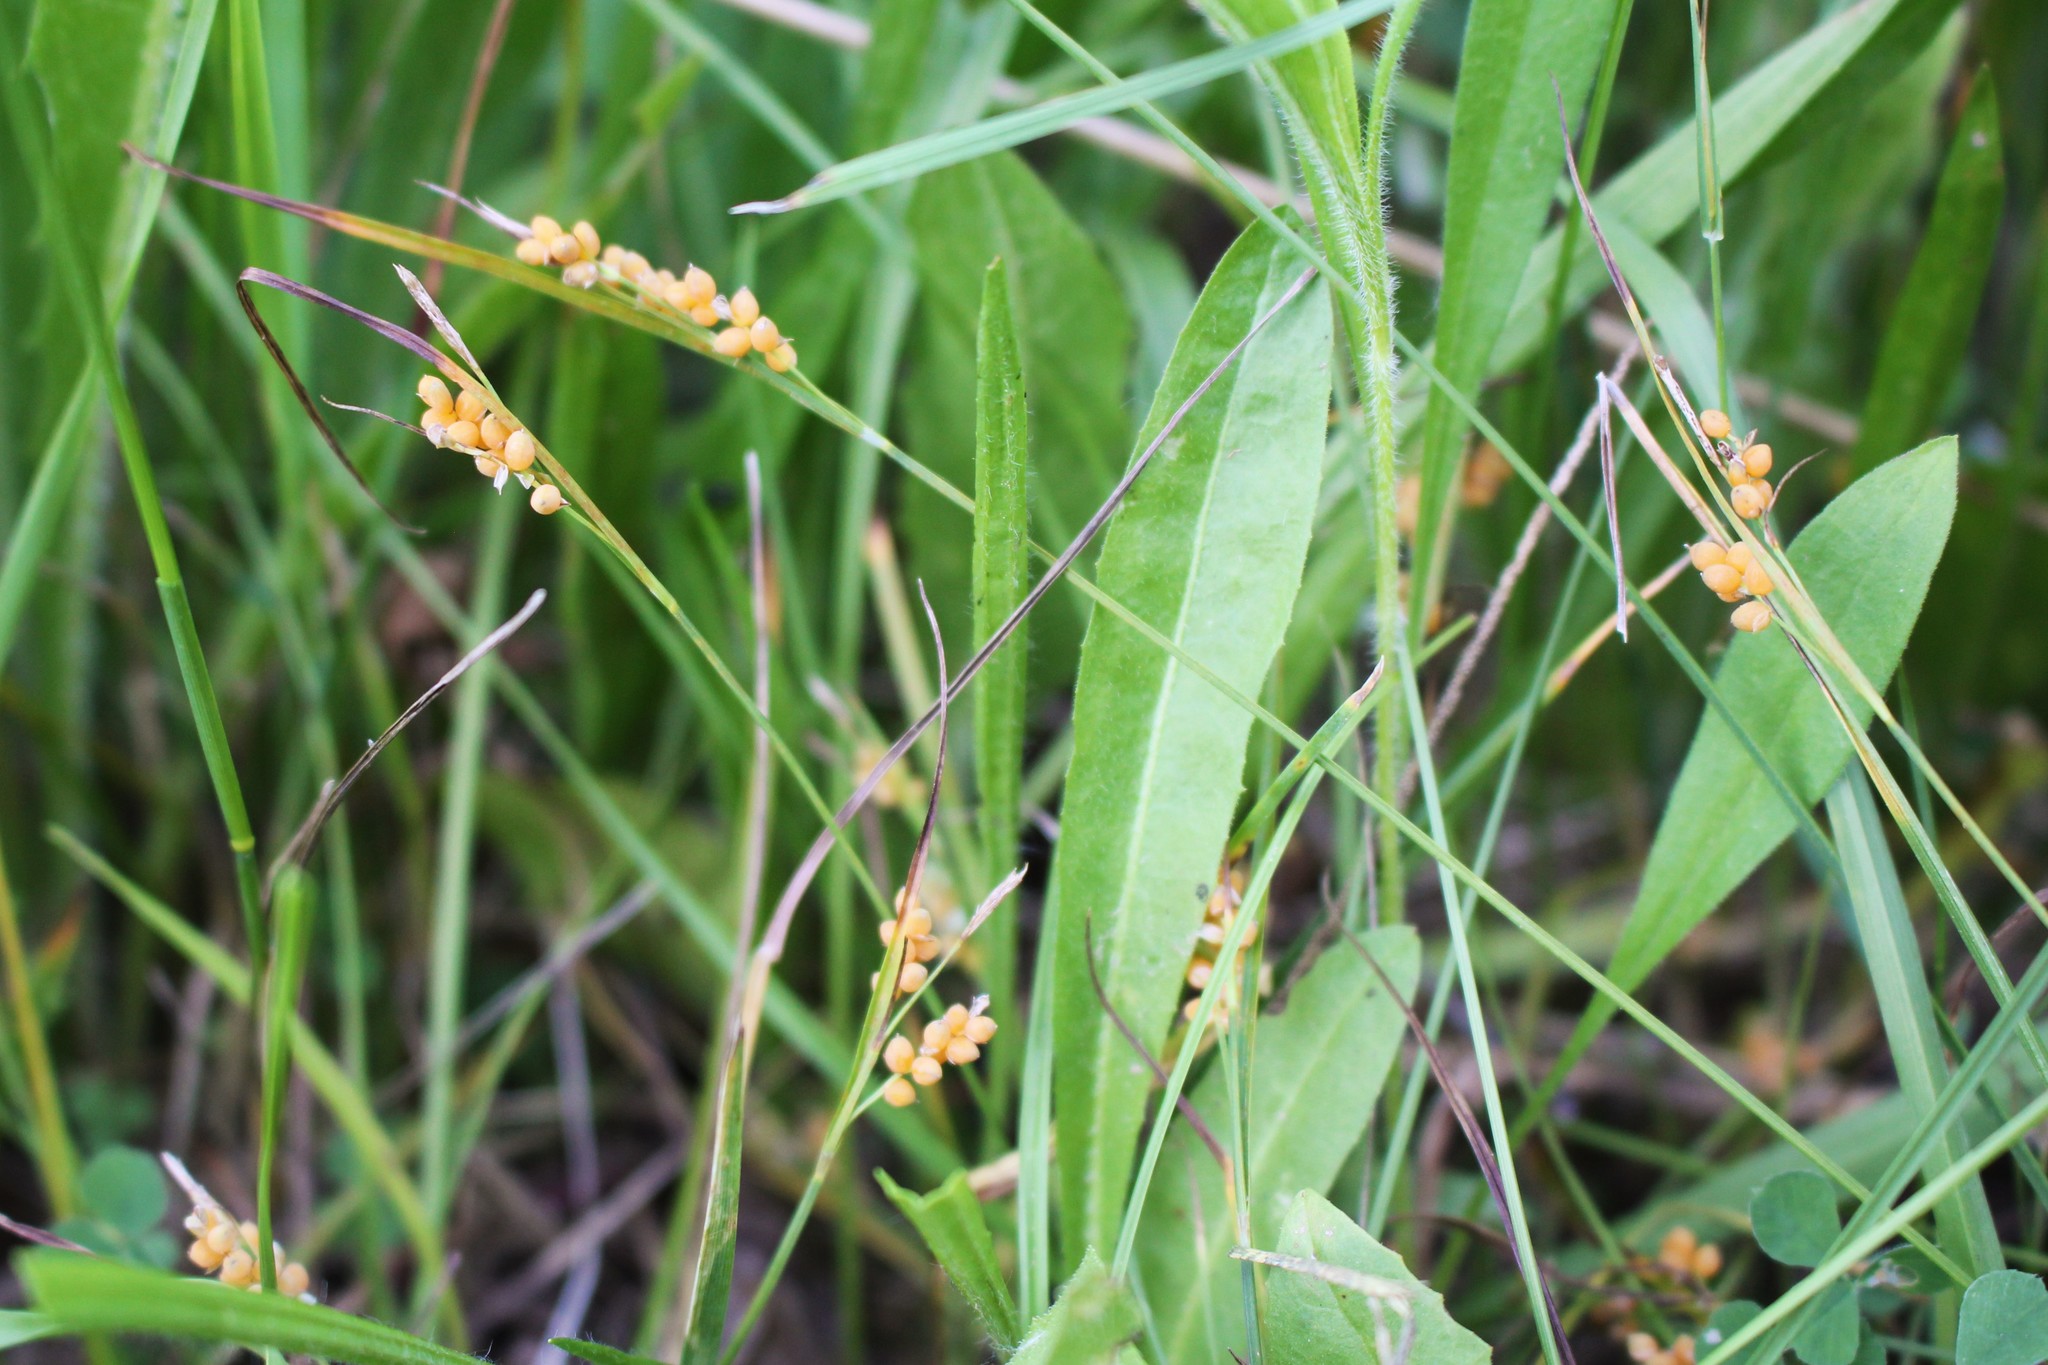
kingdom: Plantae
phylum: Tracheophyta
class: Liliopsida
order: Poales
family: Cyperaceae
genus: Carex
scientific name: Carex aurea
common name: Golden sedge
